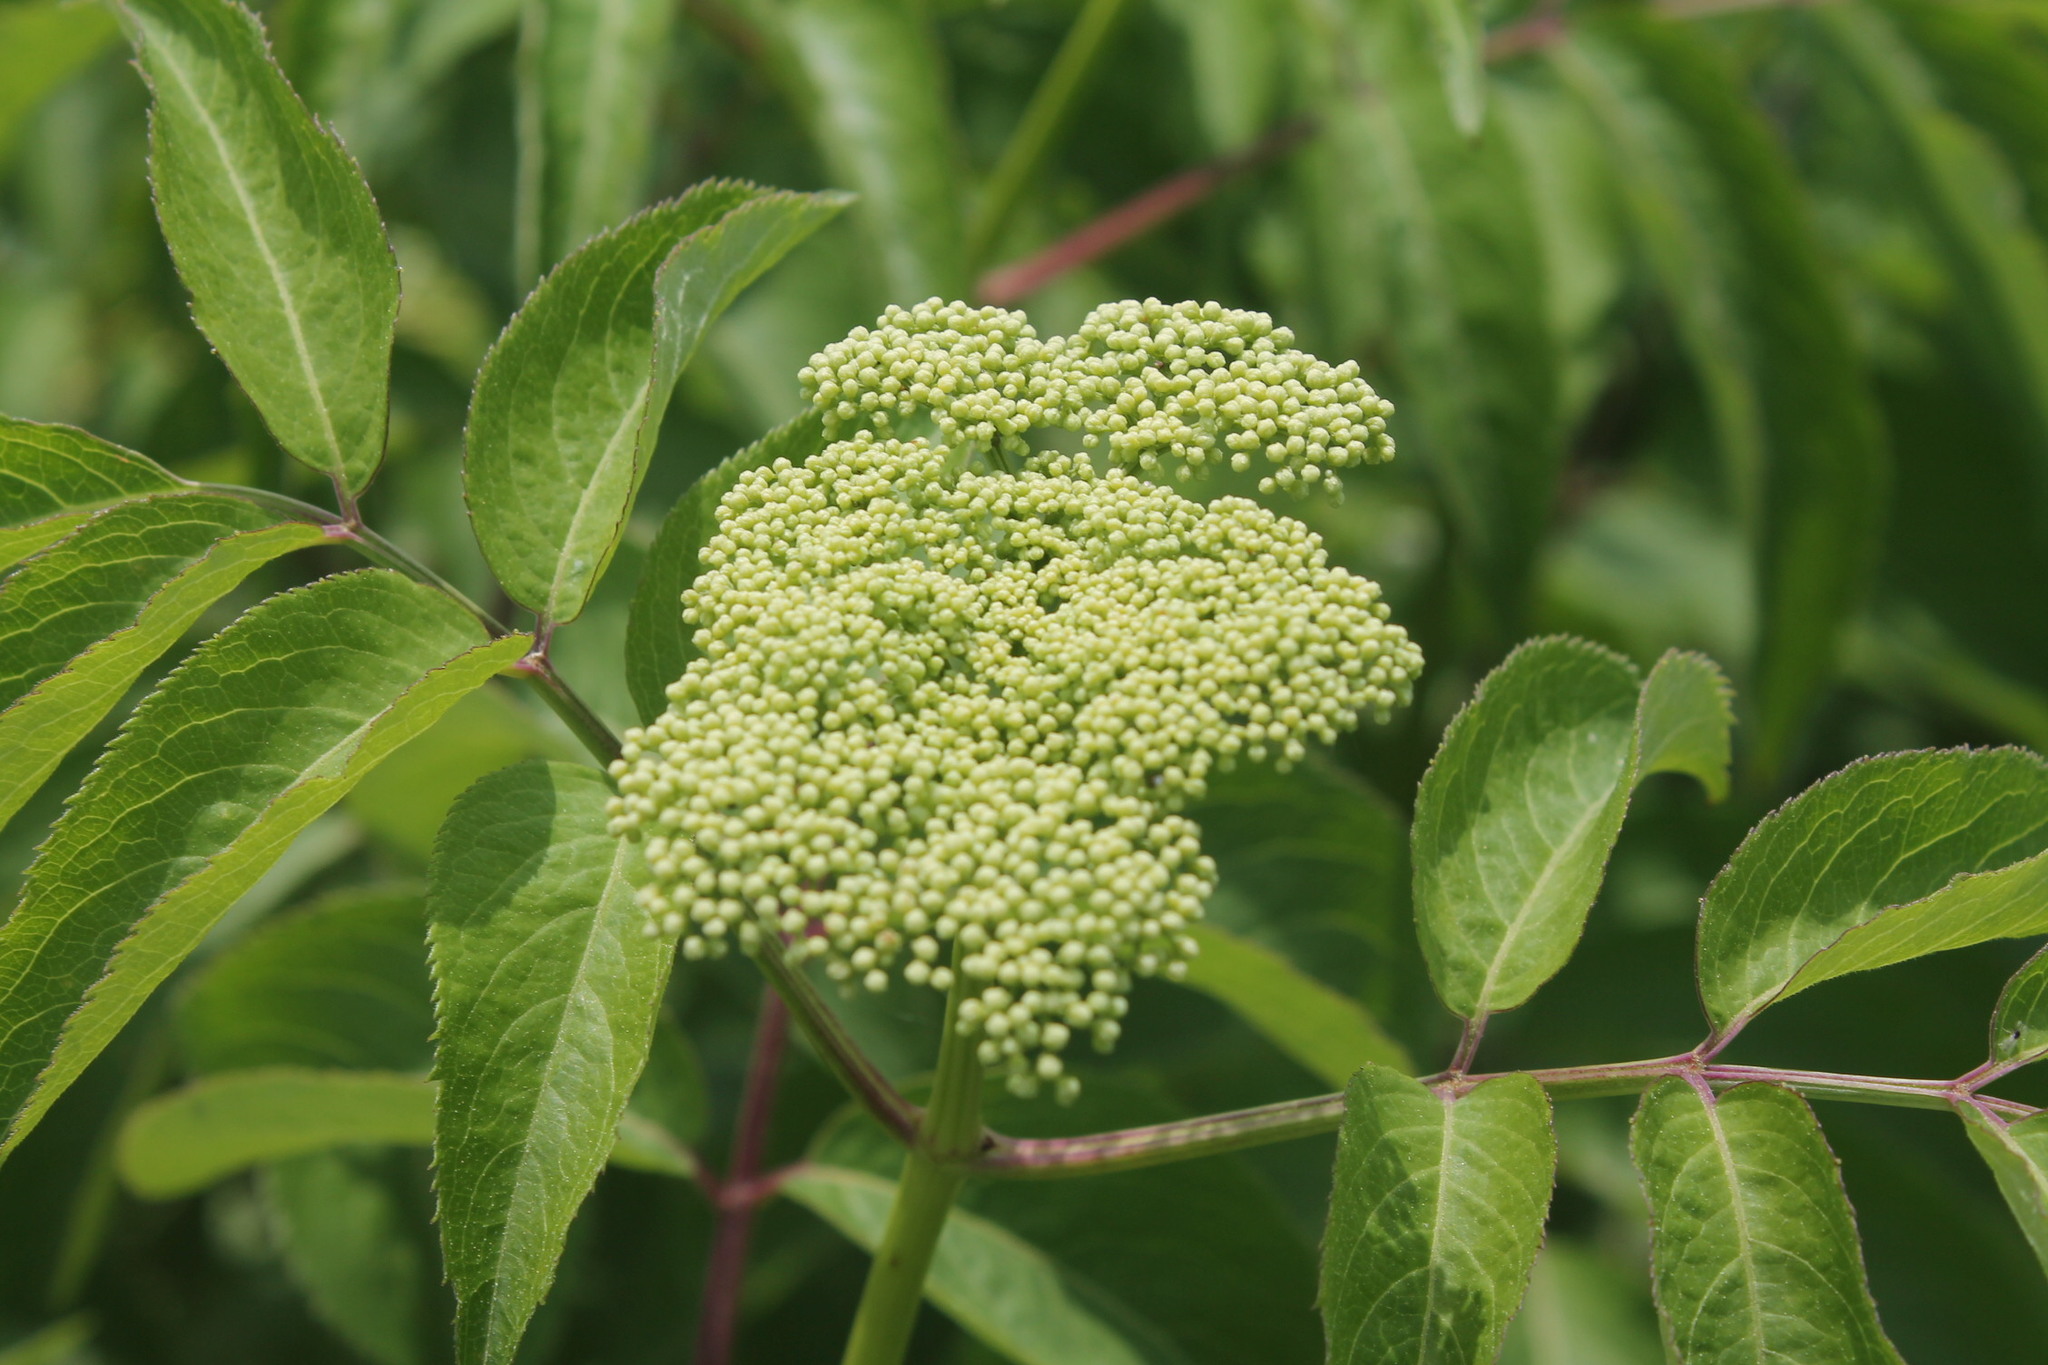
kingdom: Plantae
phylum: Tracheophyta
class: Magnoliopsida
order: Dipsacales
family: Viburnaceae
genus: Sambucus
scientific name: Sambucus canadensis
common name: American elder
